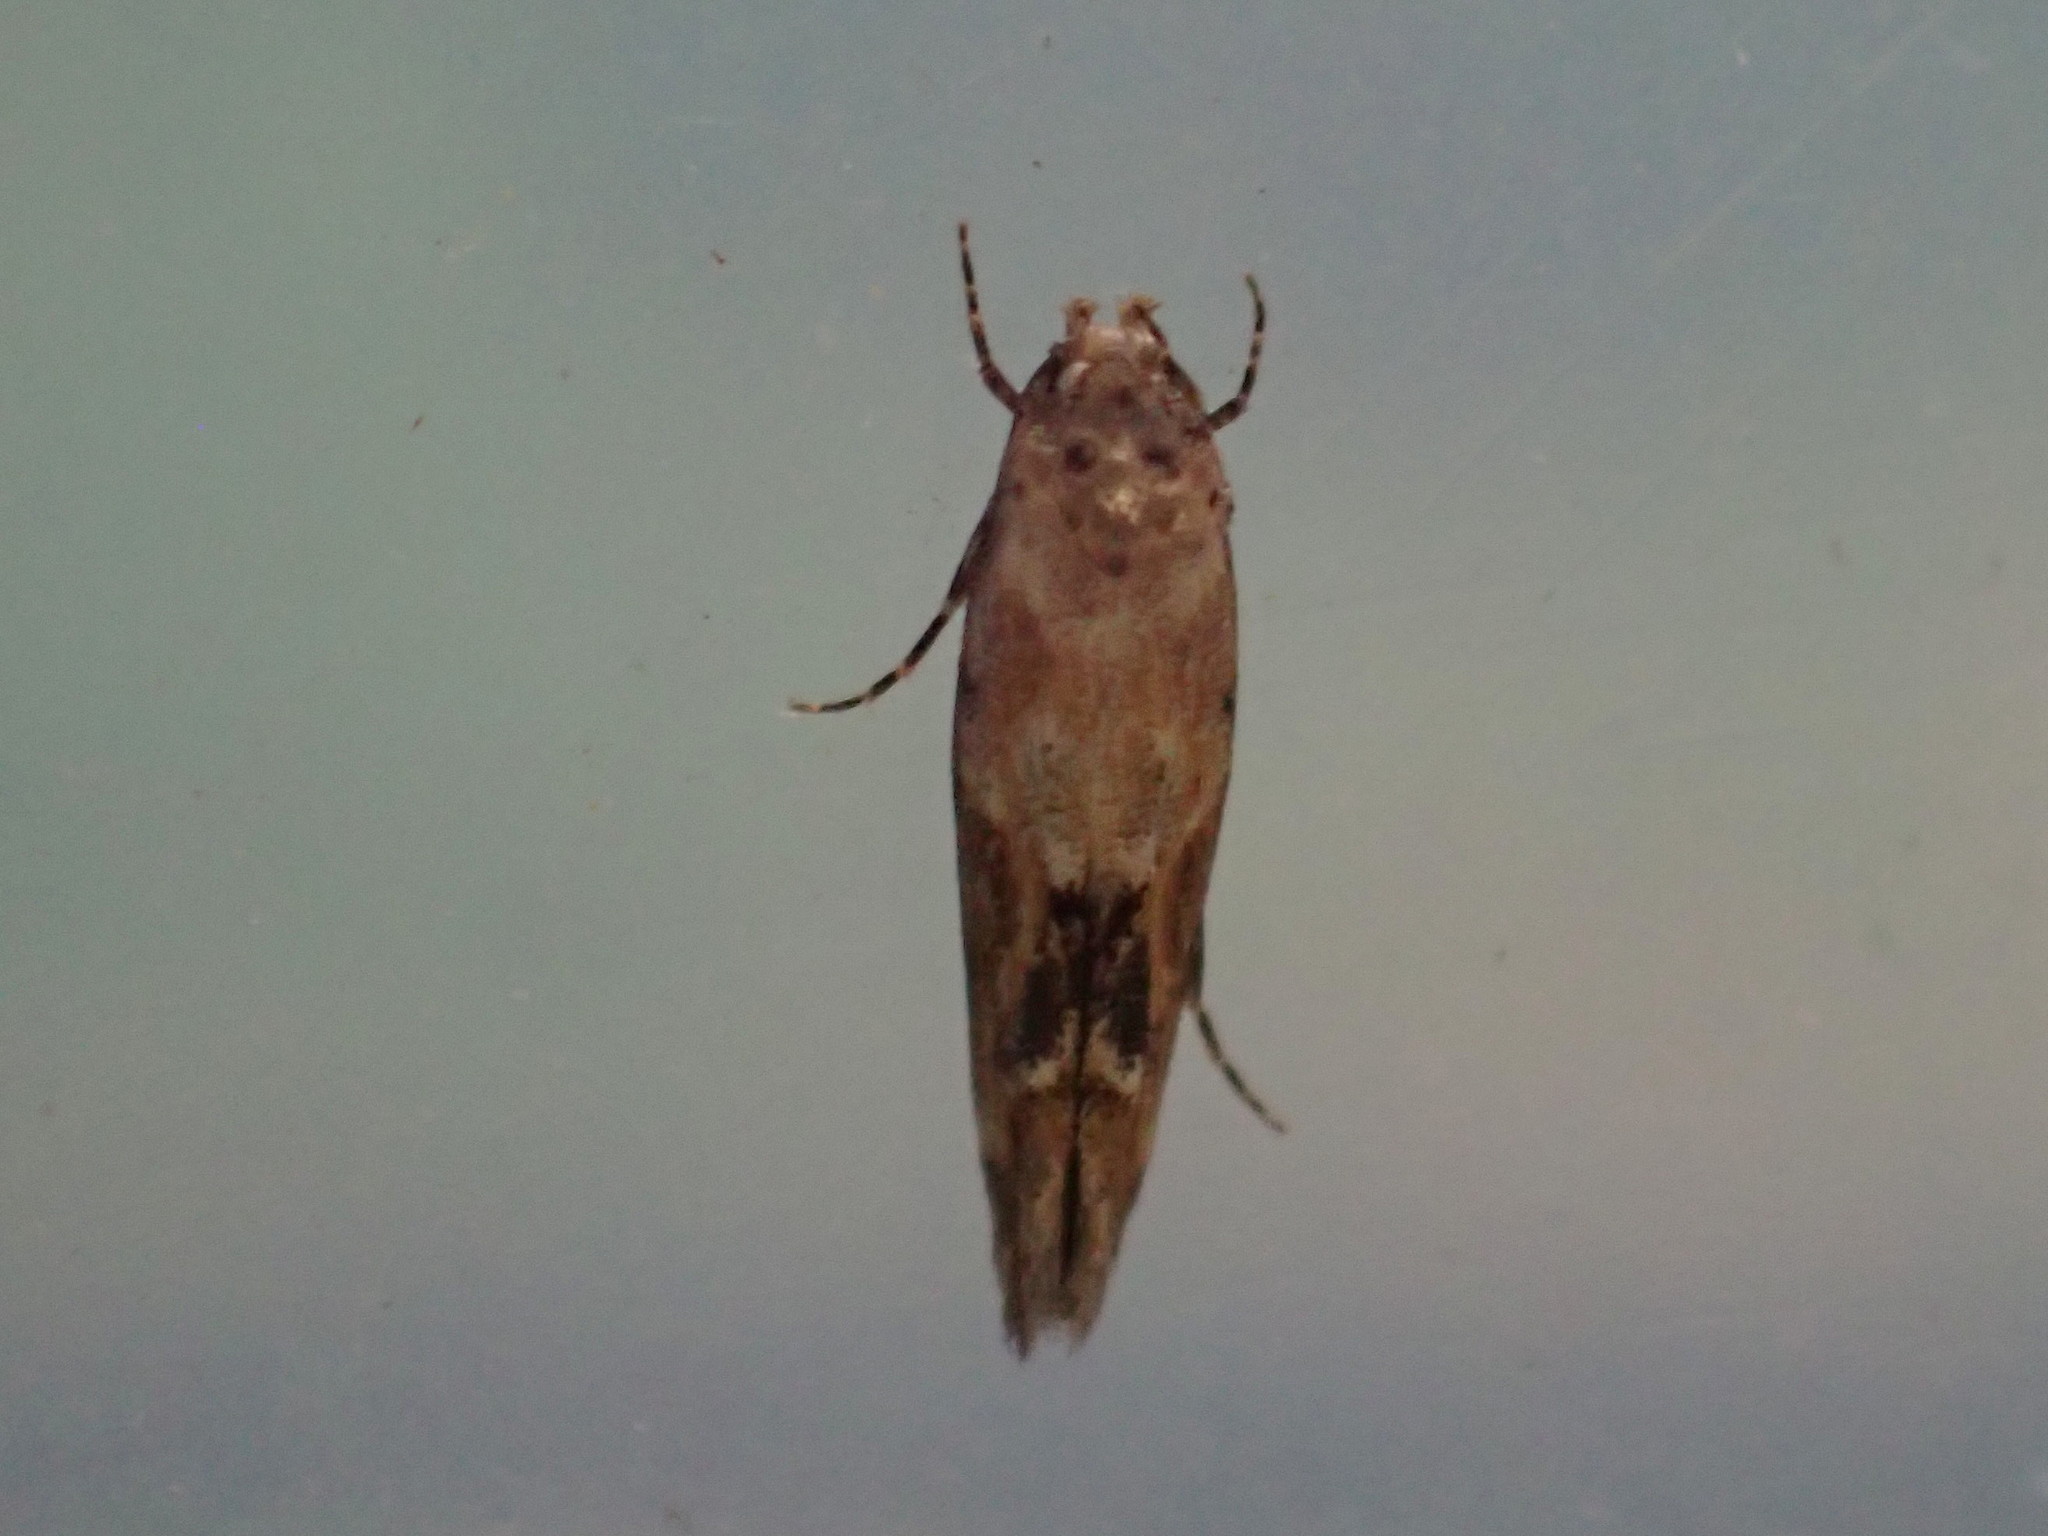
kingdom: Animalia
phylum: Arthropoda
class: Insecta
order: Lepidoptera
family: Momphidae
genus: Mompha
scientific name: Mompha stellella
